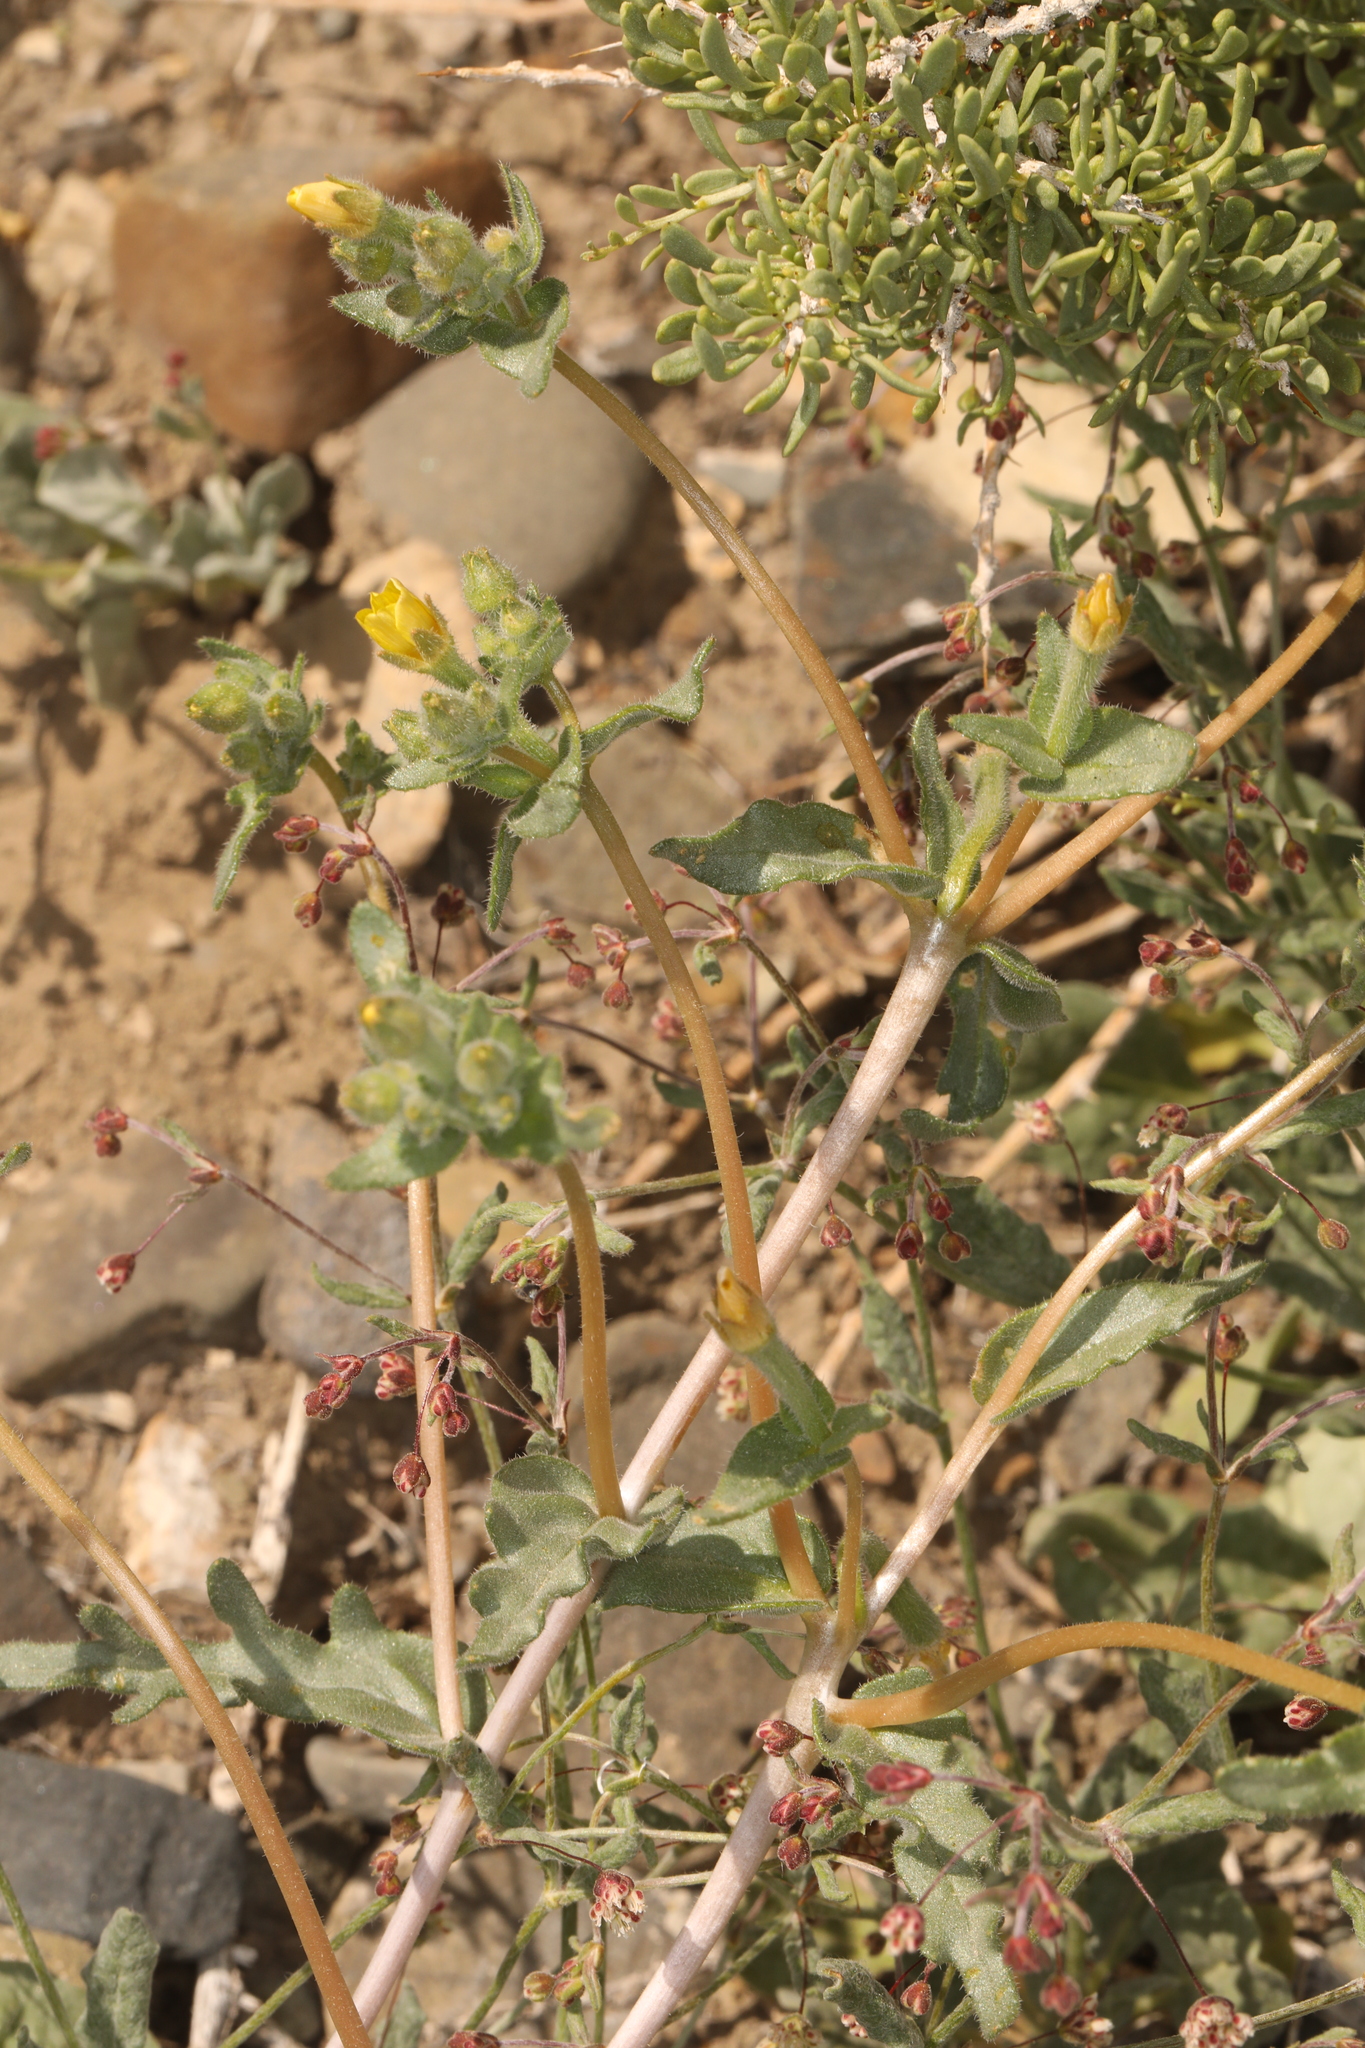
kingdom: Plantae
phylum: Tracheophyta
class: Magnoliopsida
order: Cornales
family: Loasaceae
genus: Mentzelia
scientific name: Mentzelia albicaulis
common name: White-stem blazingstar
